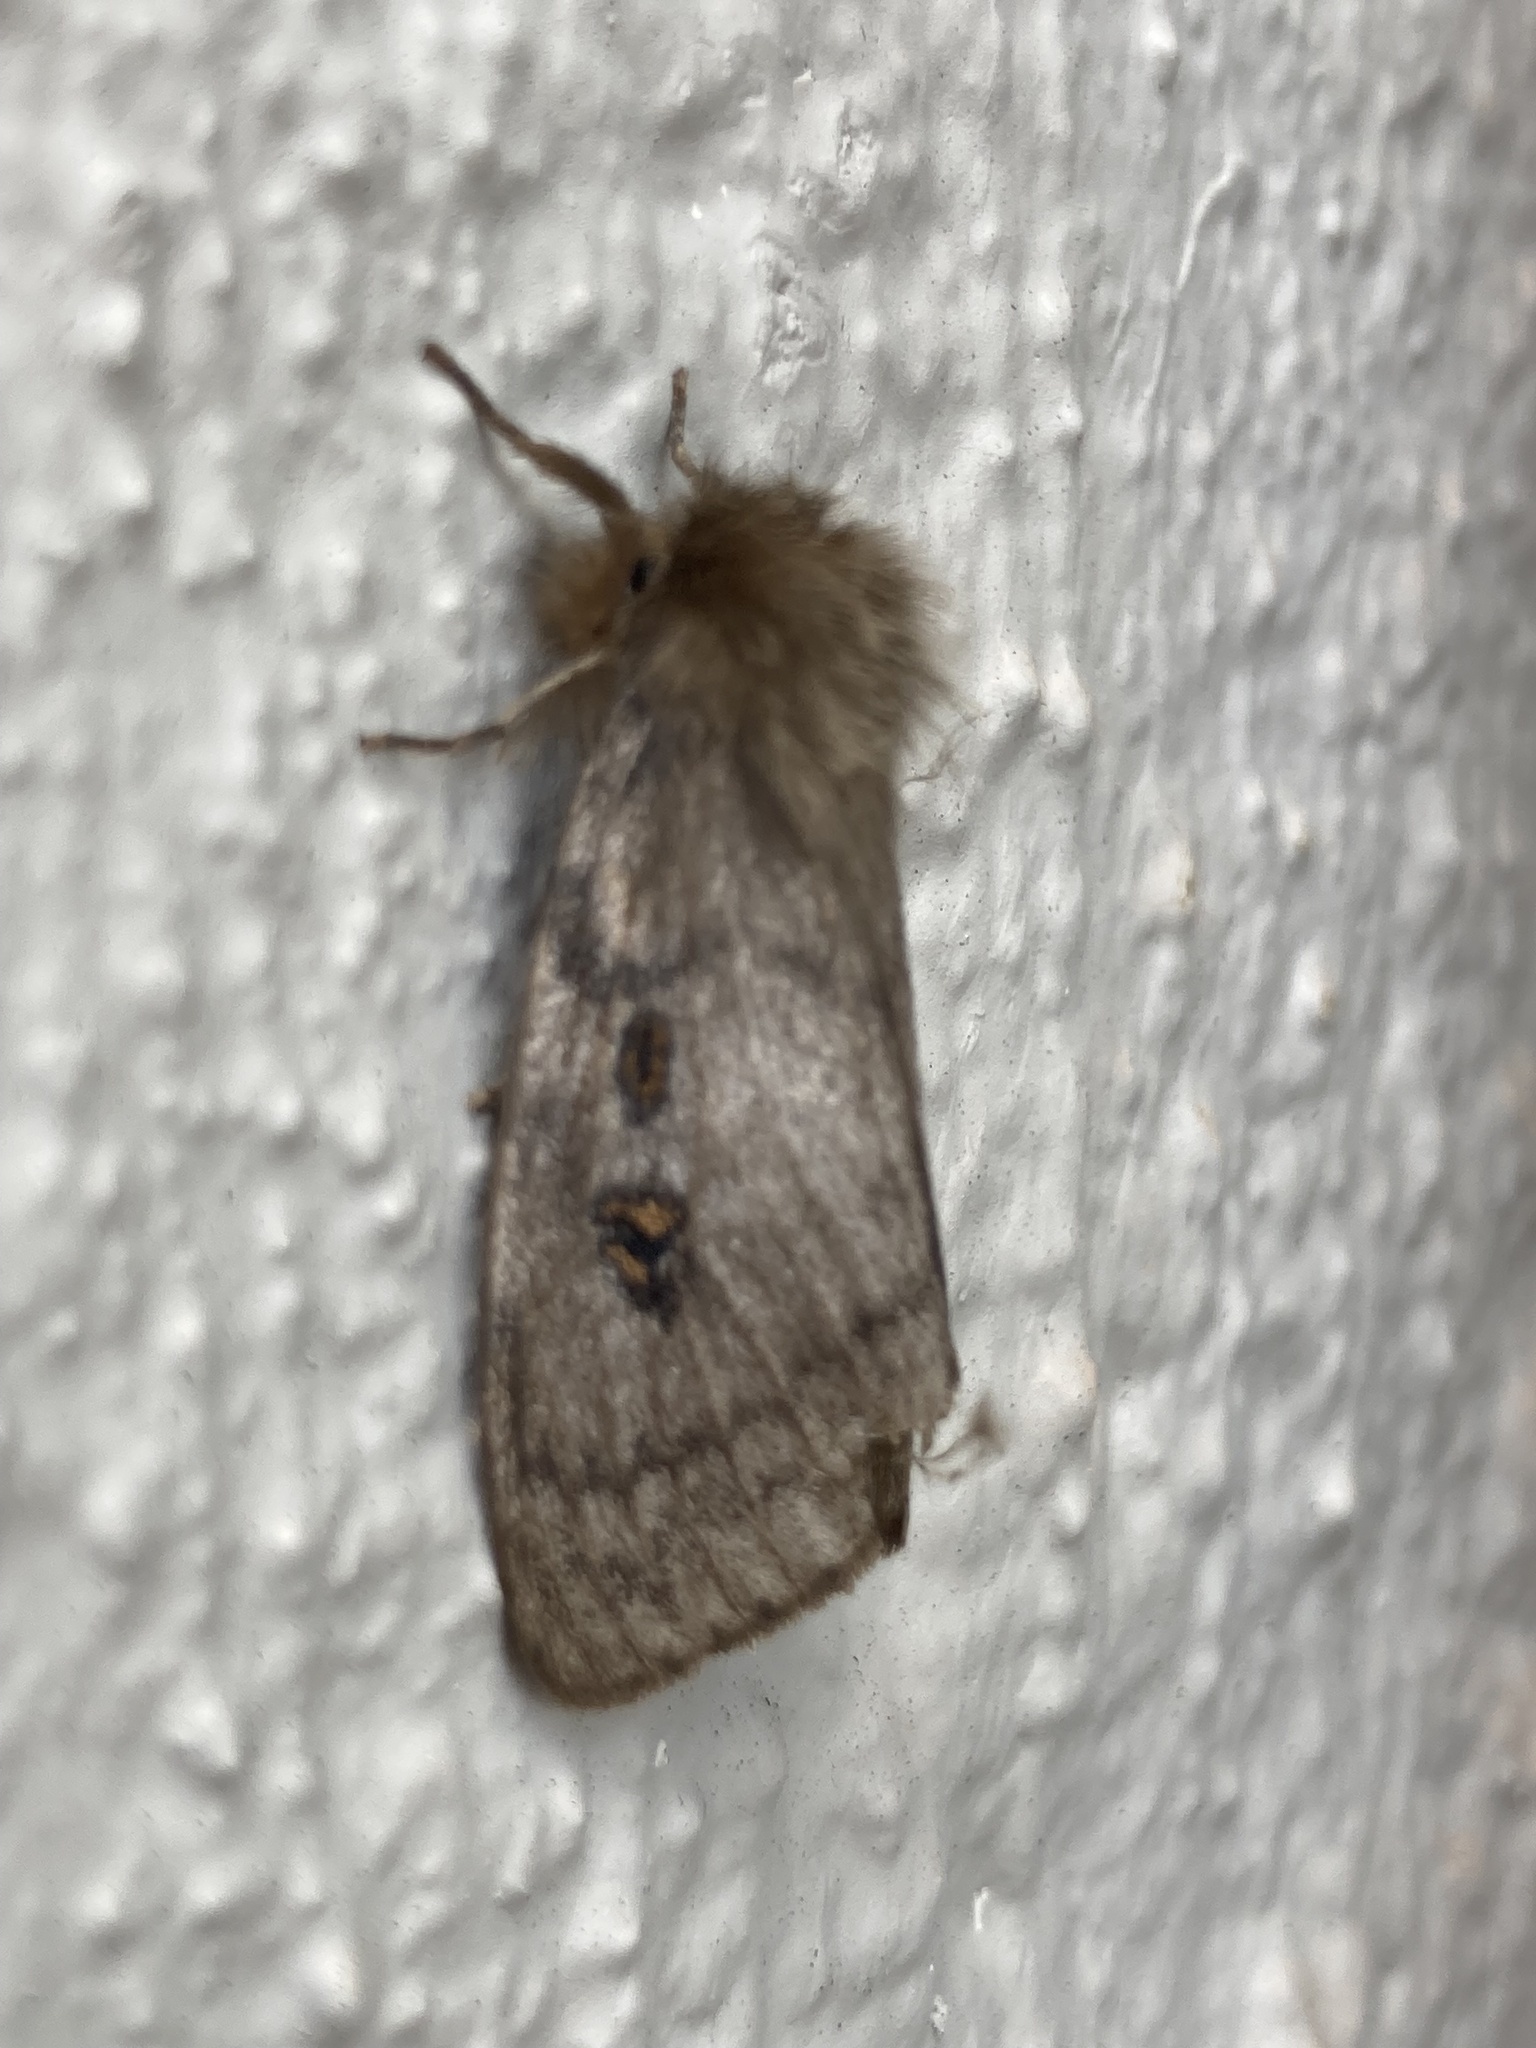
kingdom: Animalia
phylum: Arthropoda
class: Insecta
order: Lepidoptera
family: Erebidae
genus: Leptocneria
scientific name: Leptocneria reducta
